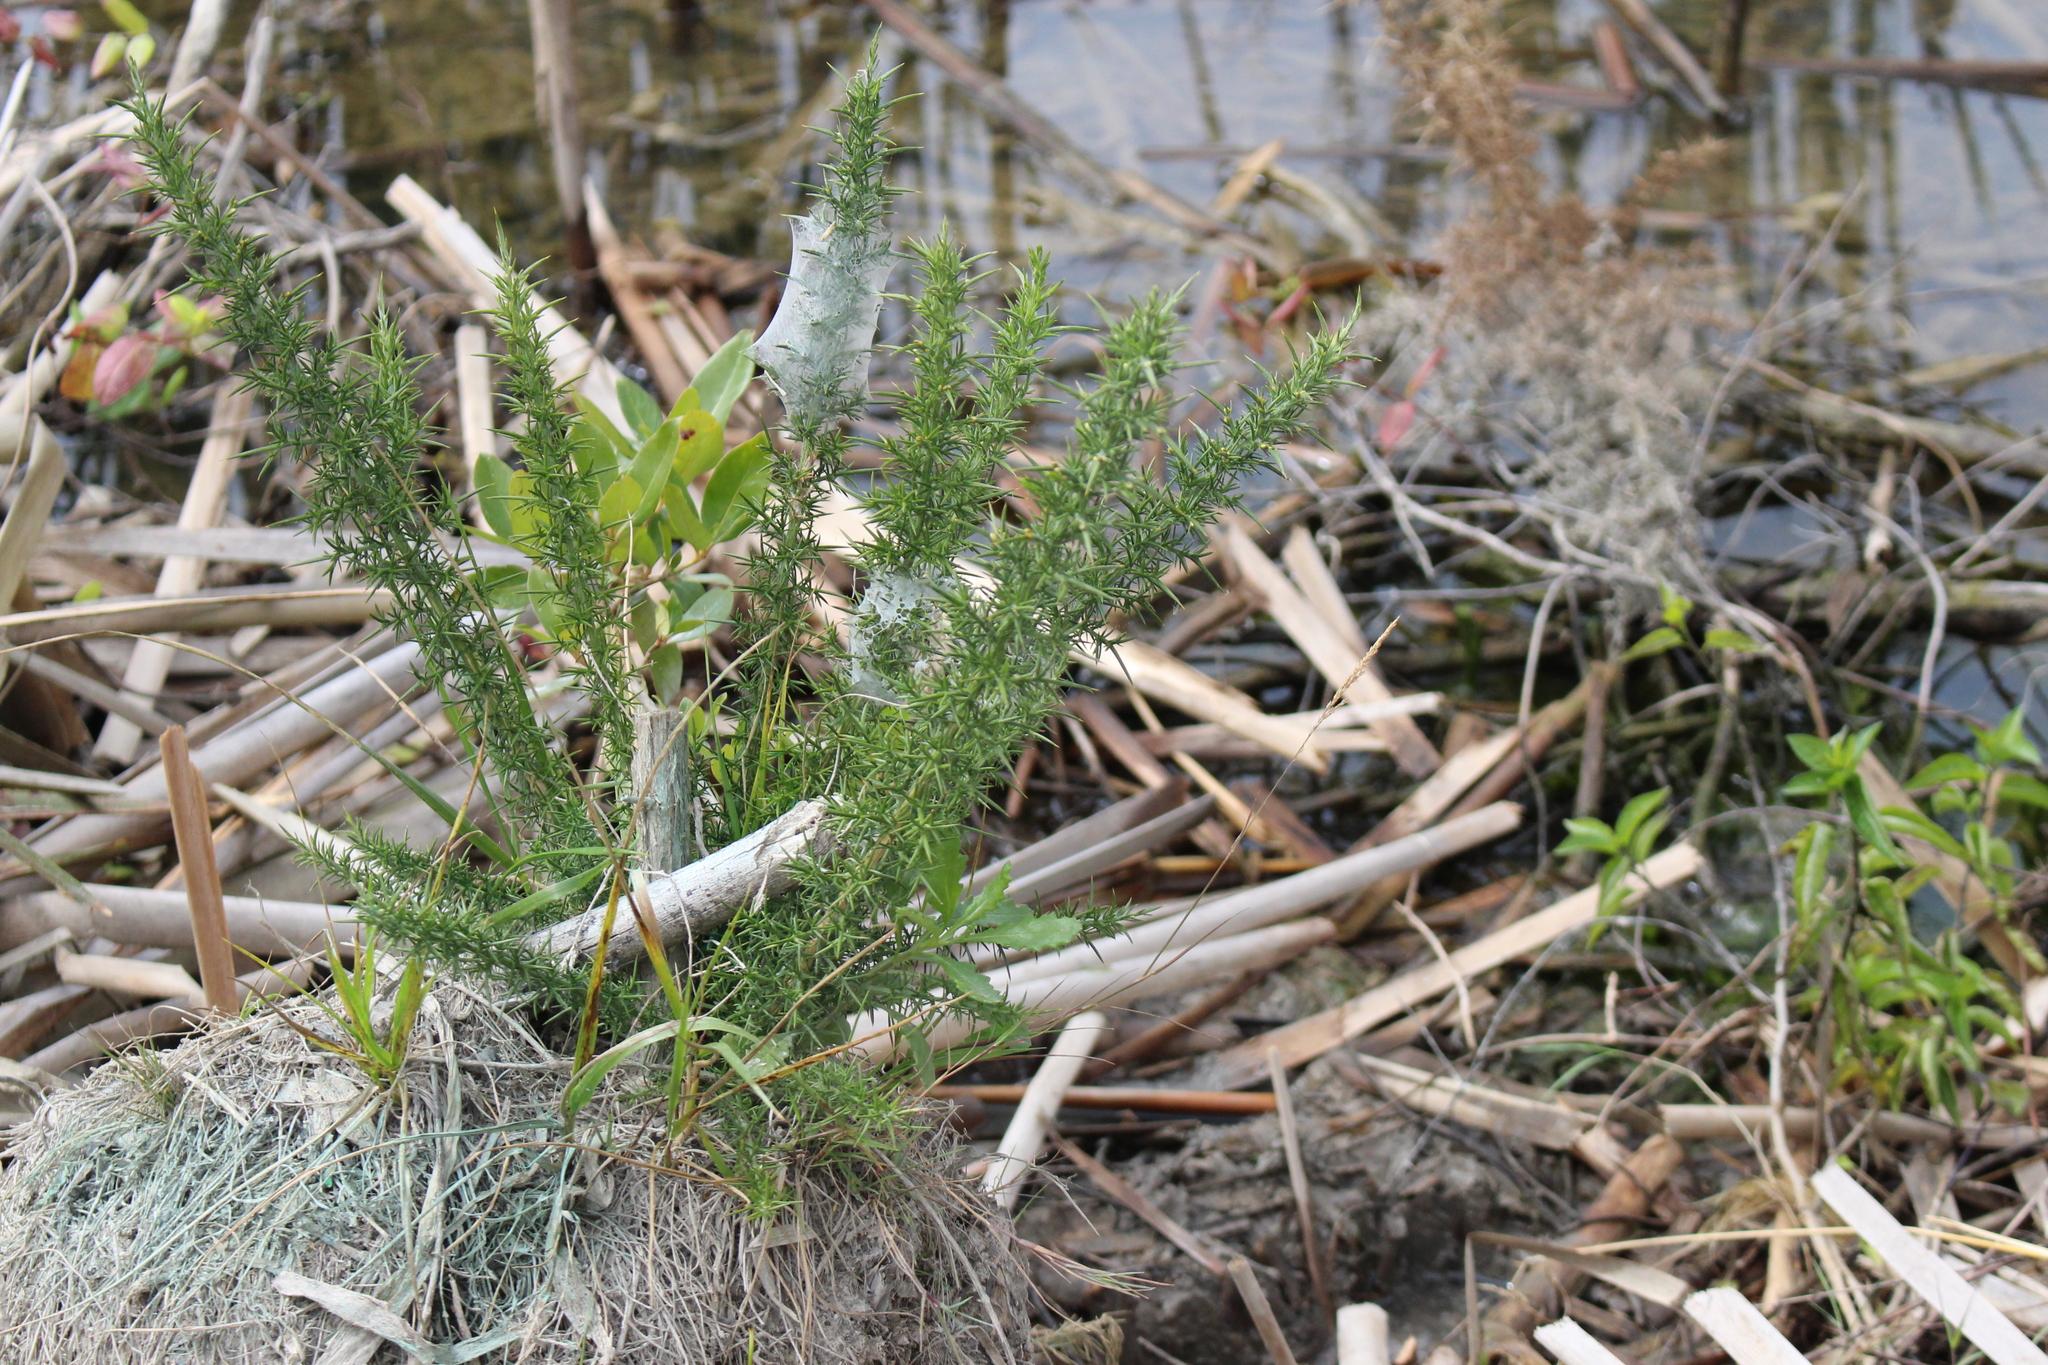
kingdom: Plantae
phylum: Tracheophyta
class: Magnoliopsida
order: Fabales
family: Fabaceae
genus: Ulex
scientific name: Ulex europaeus
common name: Common gorse
